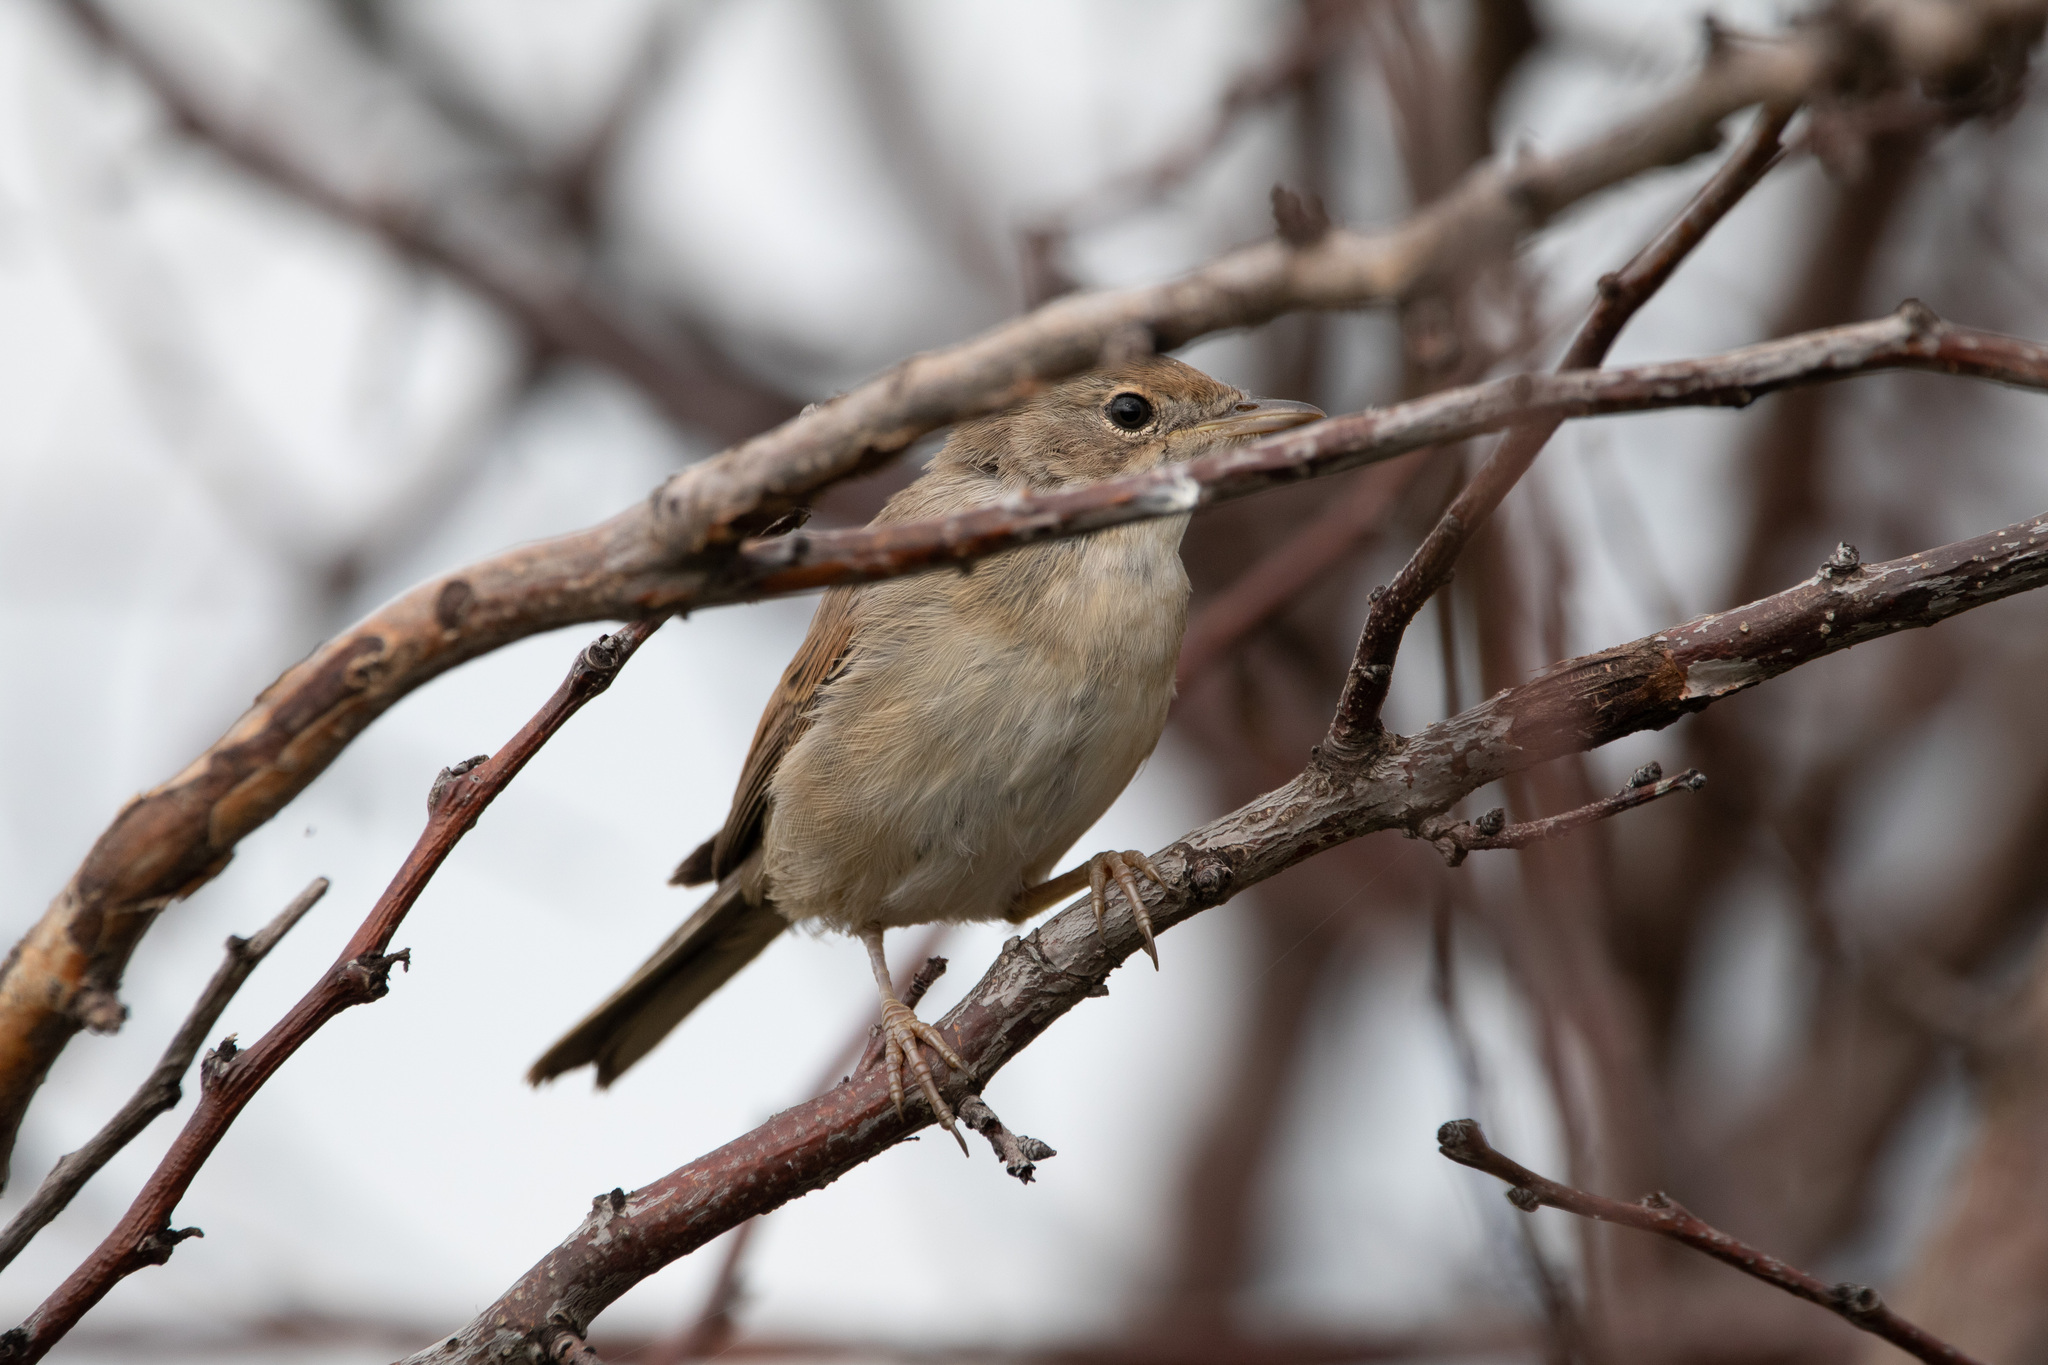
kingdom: Animalia
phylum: Chordata
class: Aves
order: Passeriformes
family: Sylviidae
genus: Sylvia
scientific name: Sylvia communis
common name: Common whitethroat
